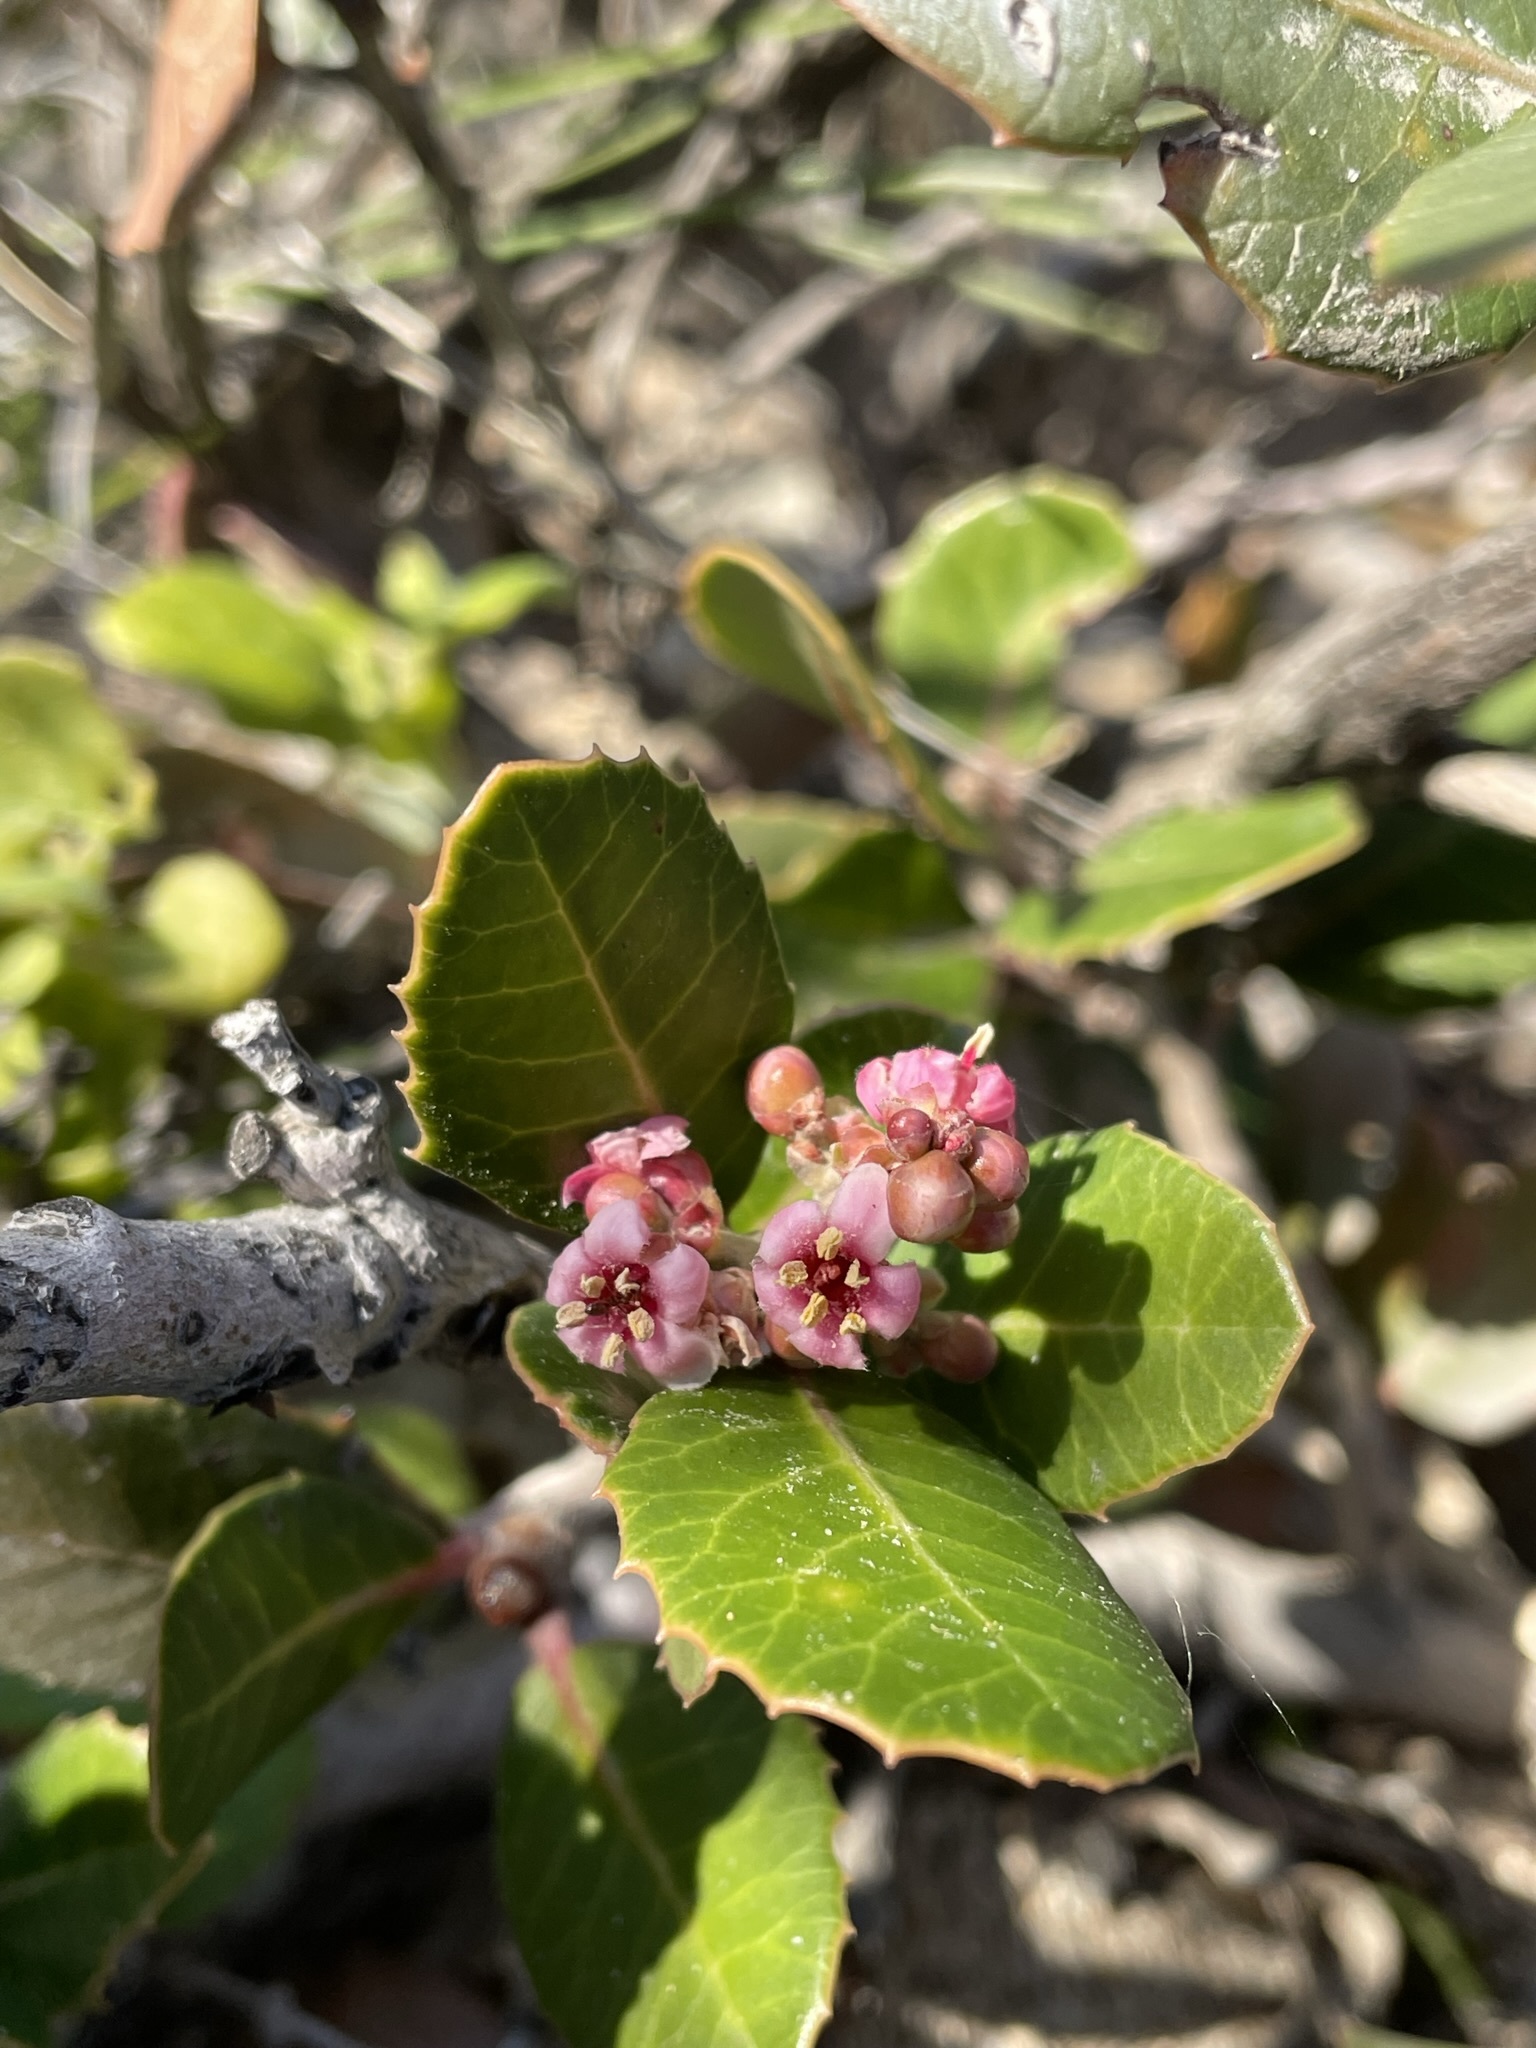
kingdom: Plantae
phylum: Tracheophyta
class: Magnoliopsida
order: Sapindales
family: Anacardiaceae
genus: Rhus
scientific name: Rhus integrifolia
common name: Lemonade sumac
